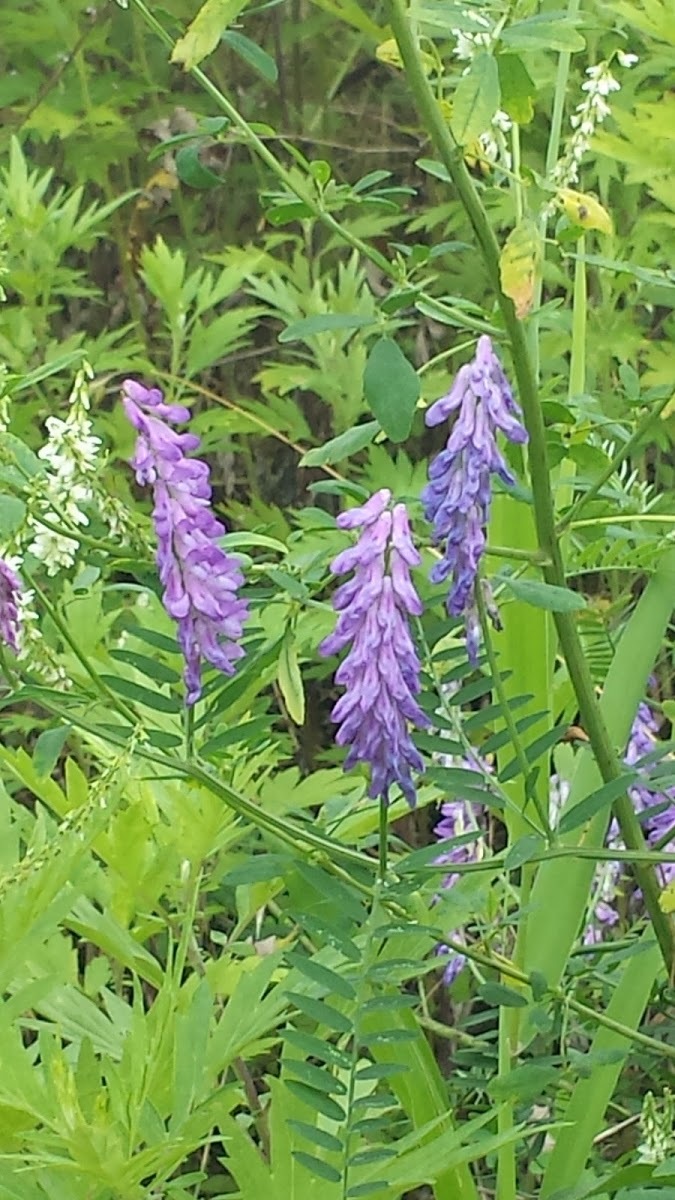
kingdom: Plantae
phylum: Tracheophyta
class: Magnoliopsida
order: Fabales
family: Fabaceae
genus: Vicia
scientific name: Vicia cracca
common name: Bird vetch
